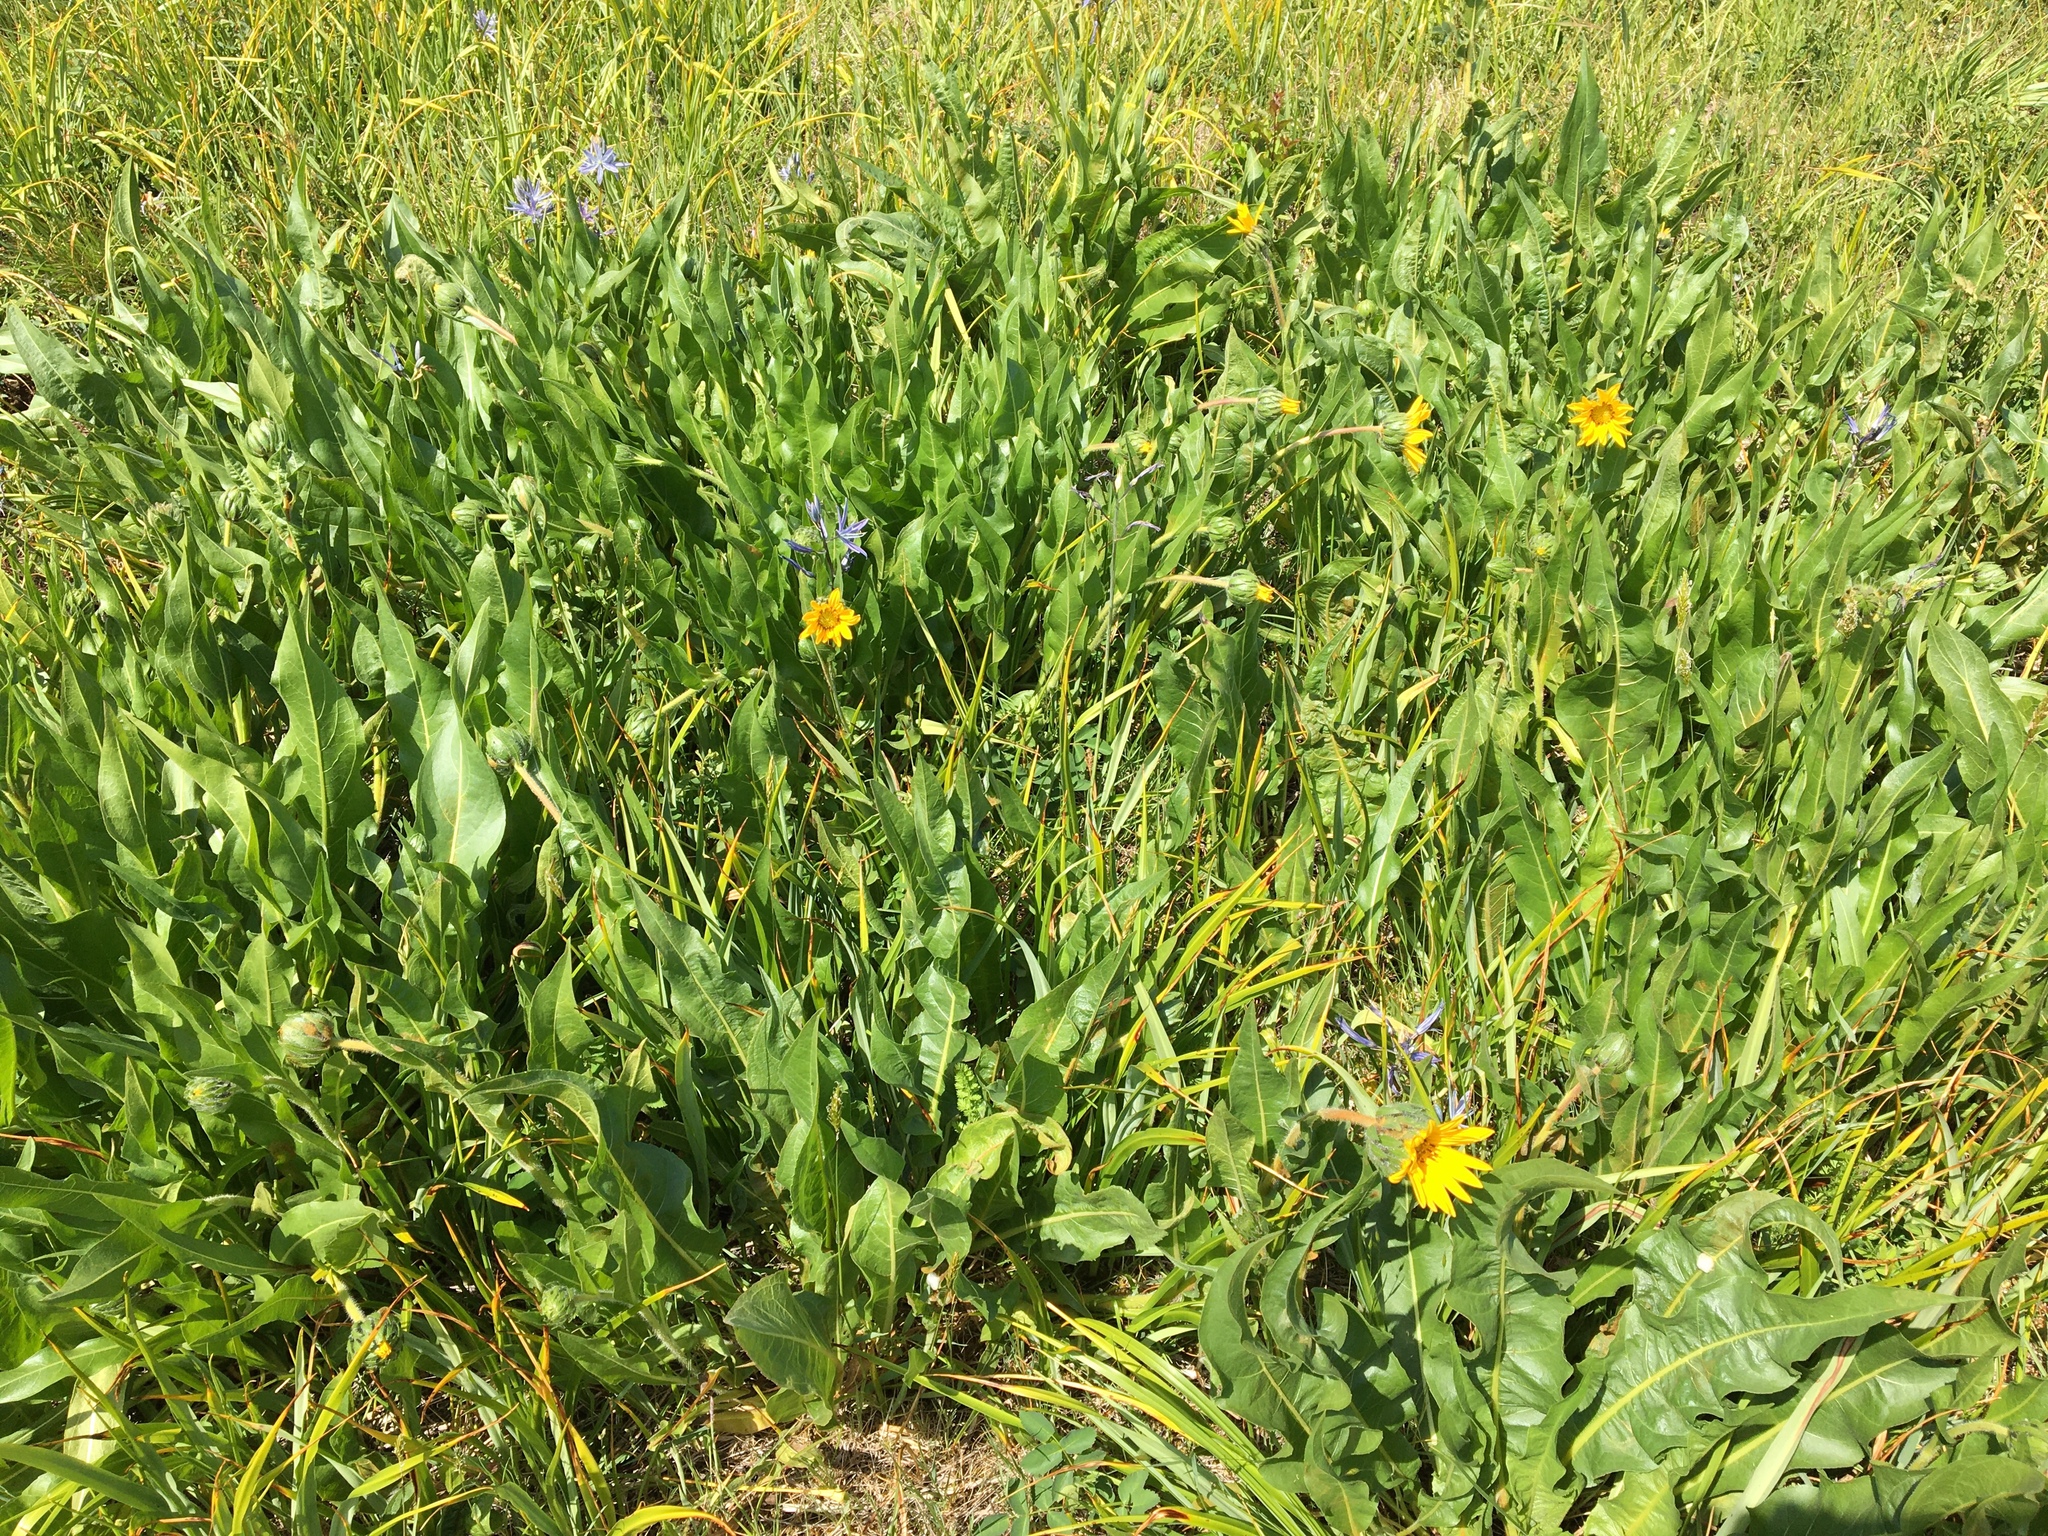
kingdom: Plantae
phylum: Tracheophyta
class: Magnoliopsida
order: Asterales
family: Asteraceae
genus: Wyethia
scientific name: Wyethia angustifolia
